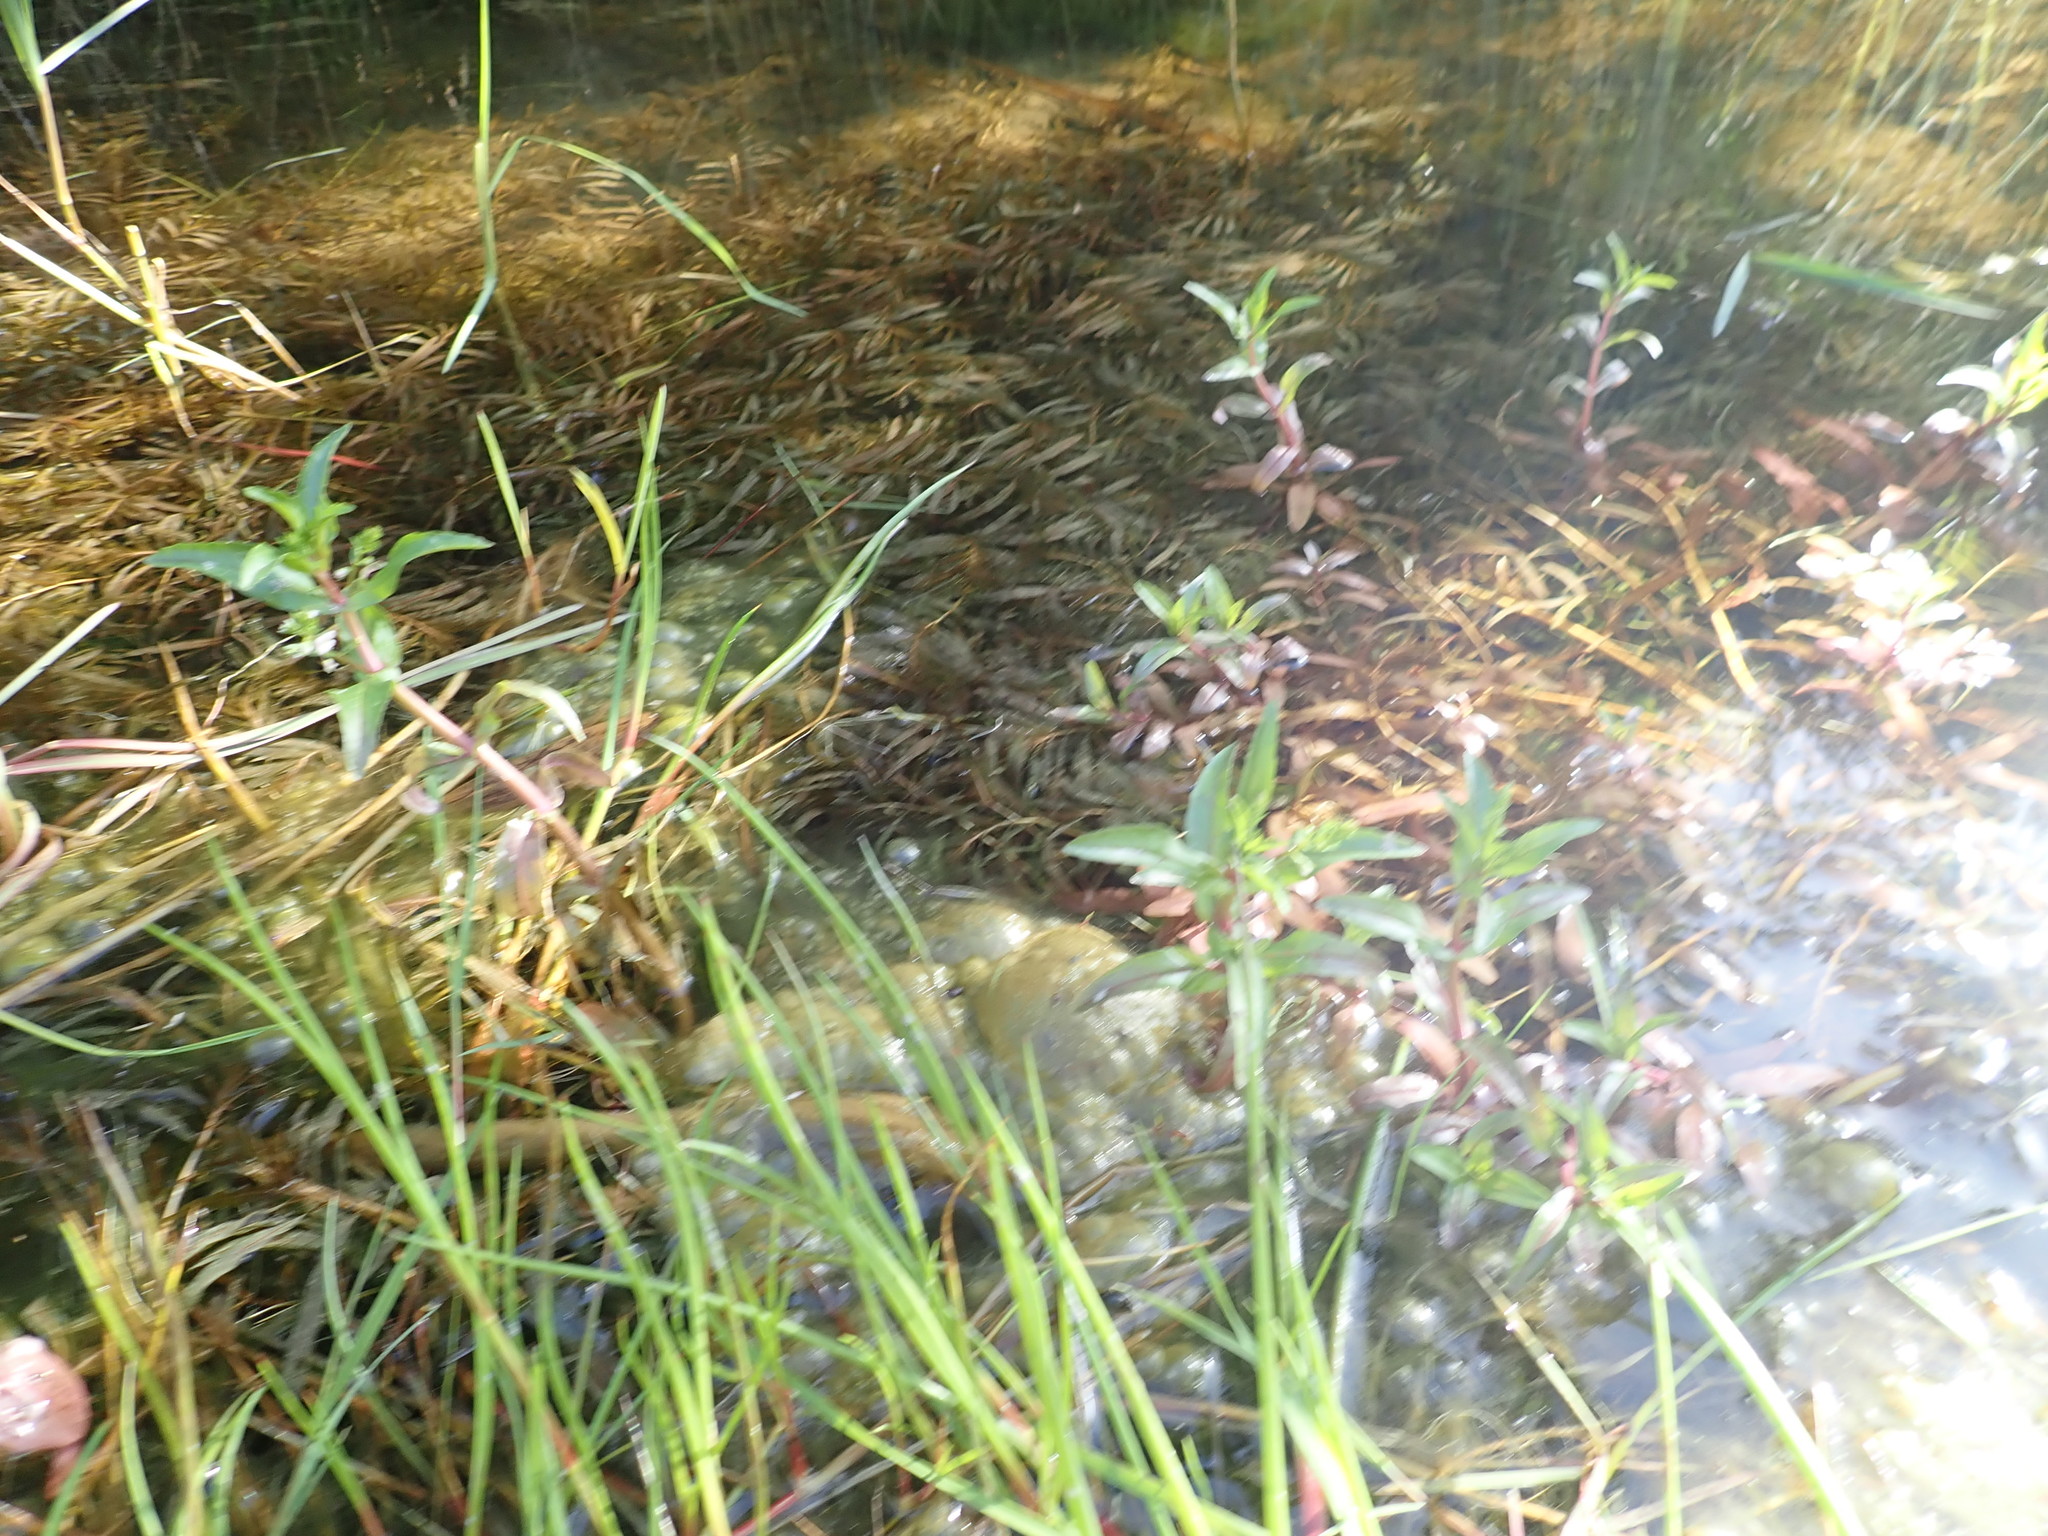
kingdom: Plantae
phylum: Tracheophyta
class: Magnoliopsida
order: Lamiales
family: Plantaginaceae
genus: Veronica
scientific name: Veronica anagallis-aquatica
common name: Water speedwell
